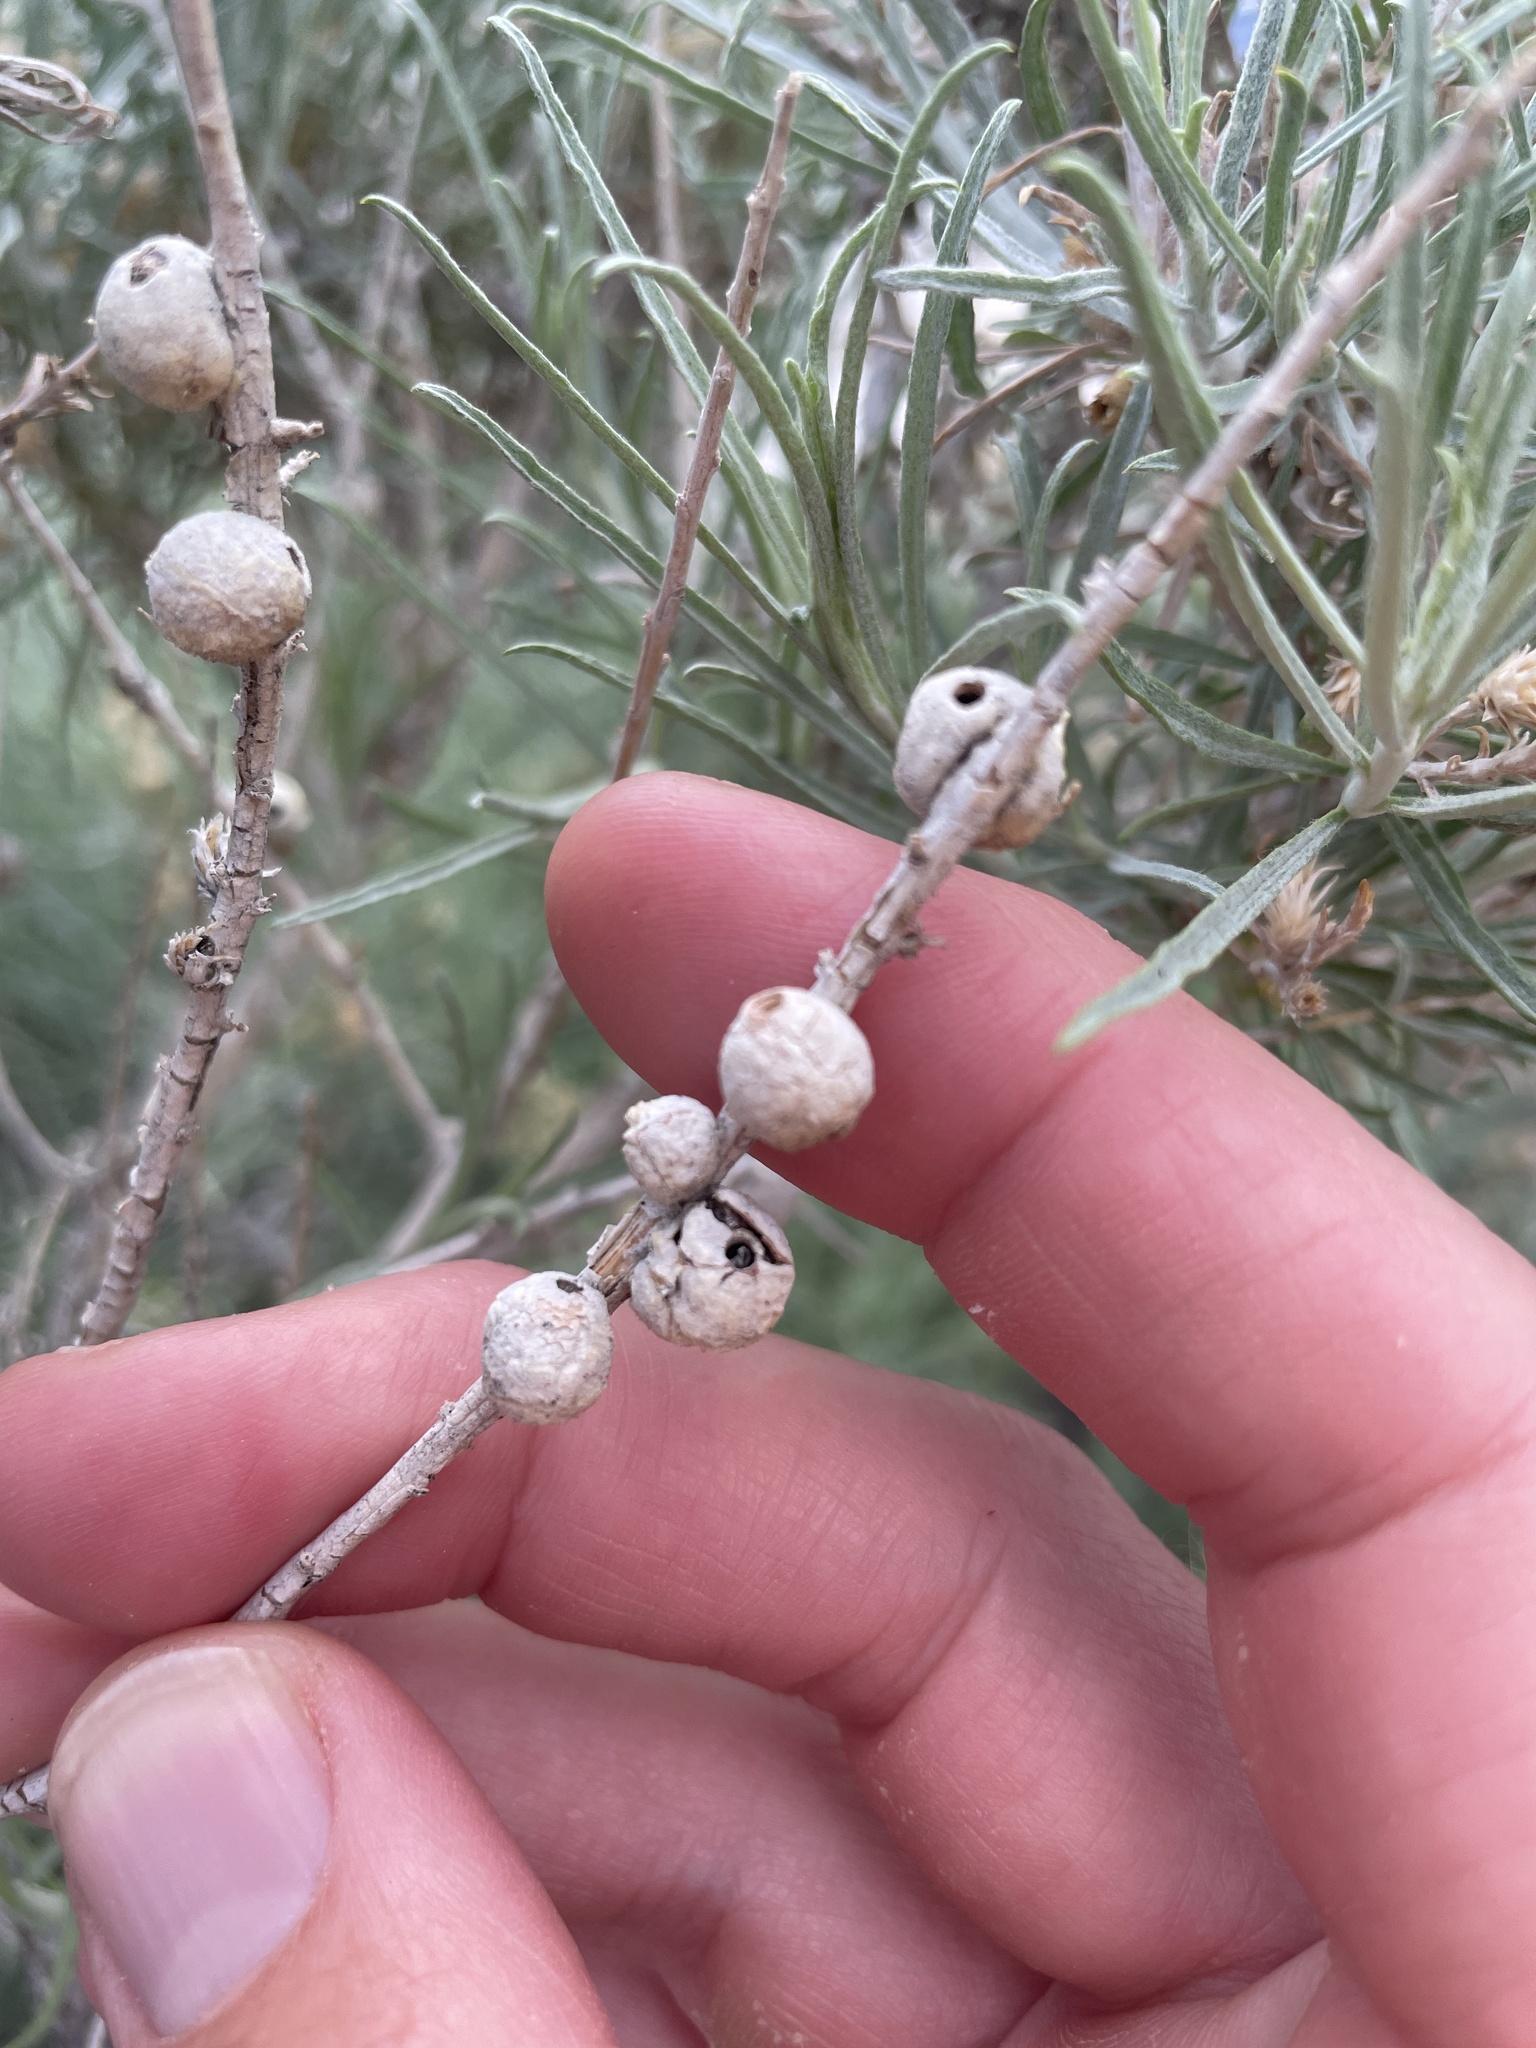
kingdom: Animalia
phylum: Arthropoda
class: Insecta
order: Diptera
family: Tephritidae
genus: Aciurina
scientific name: Aciurina trixa
